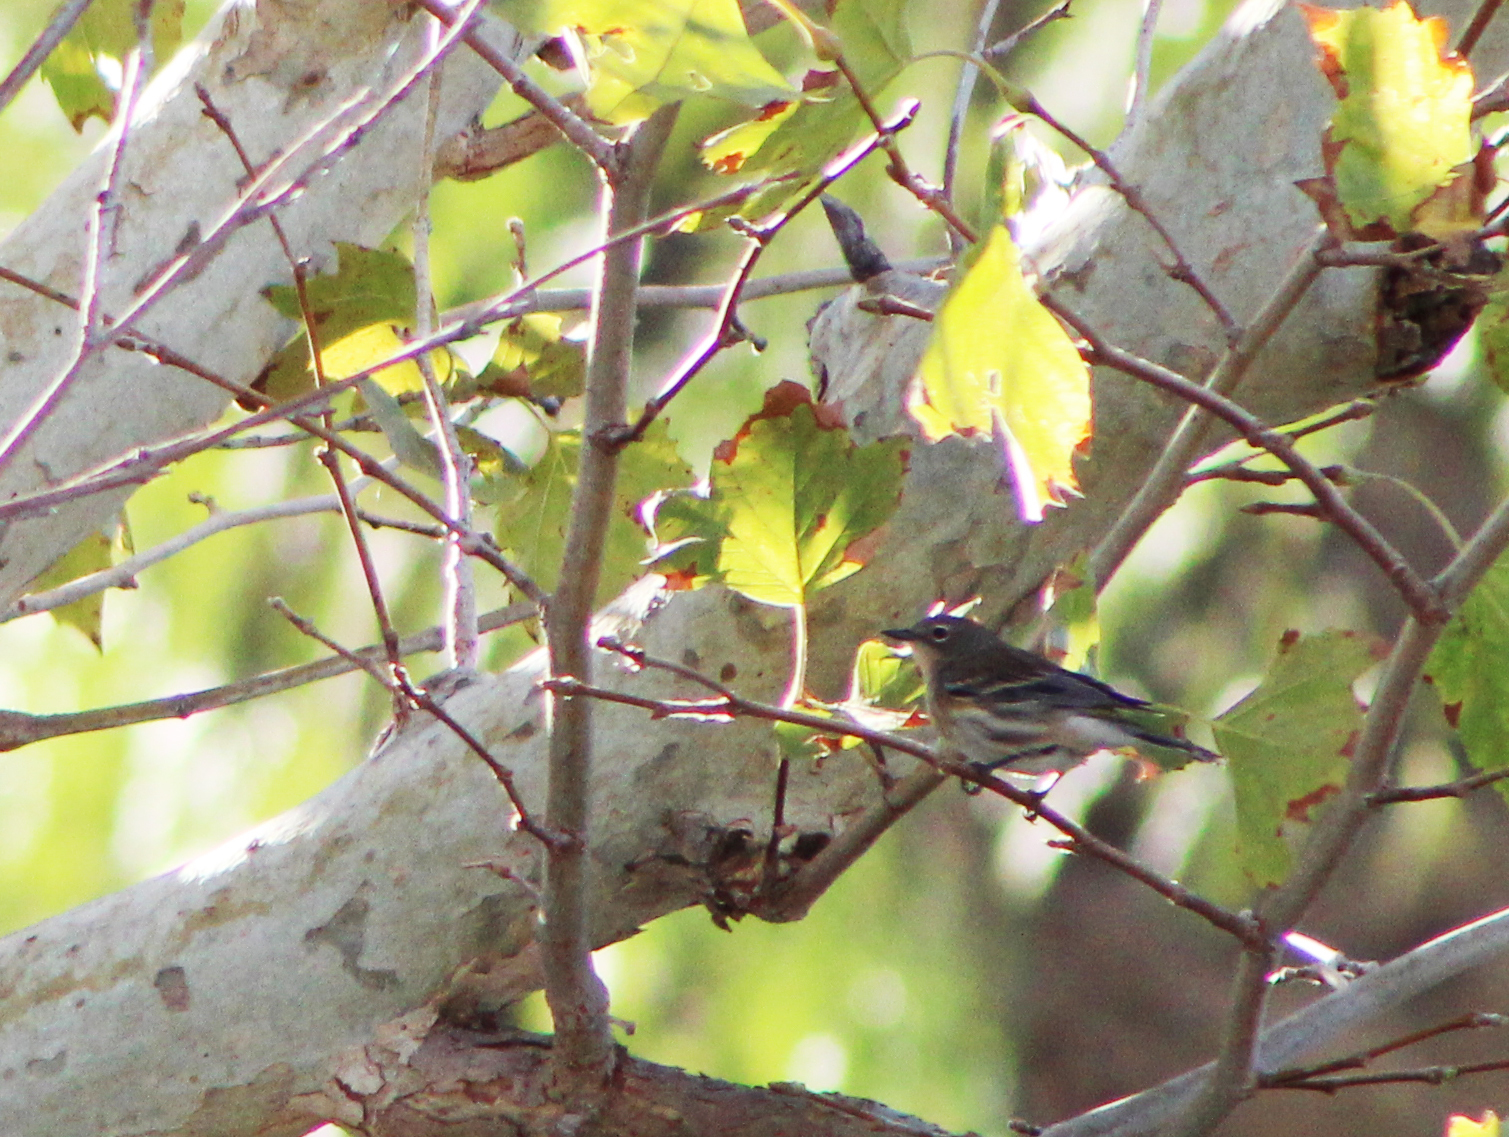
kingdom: Animalia
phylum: Chordata
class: Aves
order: Passeriformes
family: Parulidae
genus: Setophaga
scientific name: Setophaga coronata
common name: Myrtle warbler
